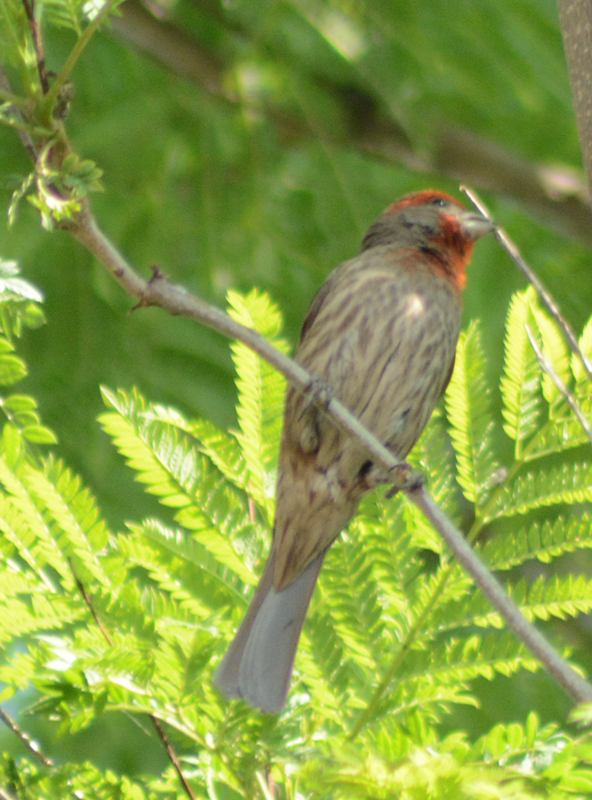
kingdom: Animalia
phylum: Chordata
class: Aves
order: Passeriformes
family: Fringillidae
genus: Haemorhous
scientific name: Haemorhous mexicanus
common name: House finch
